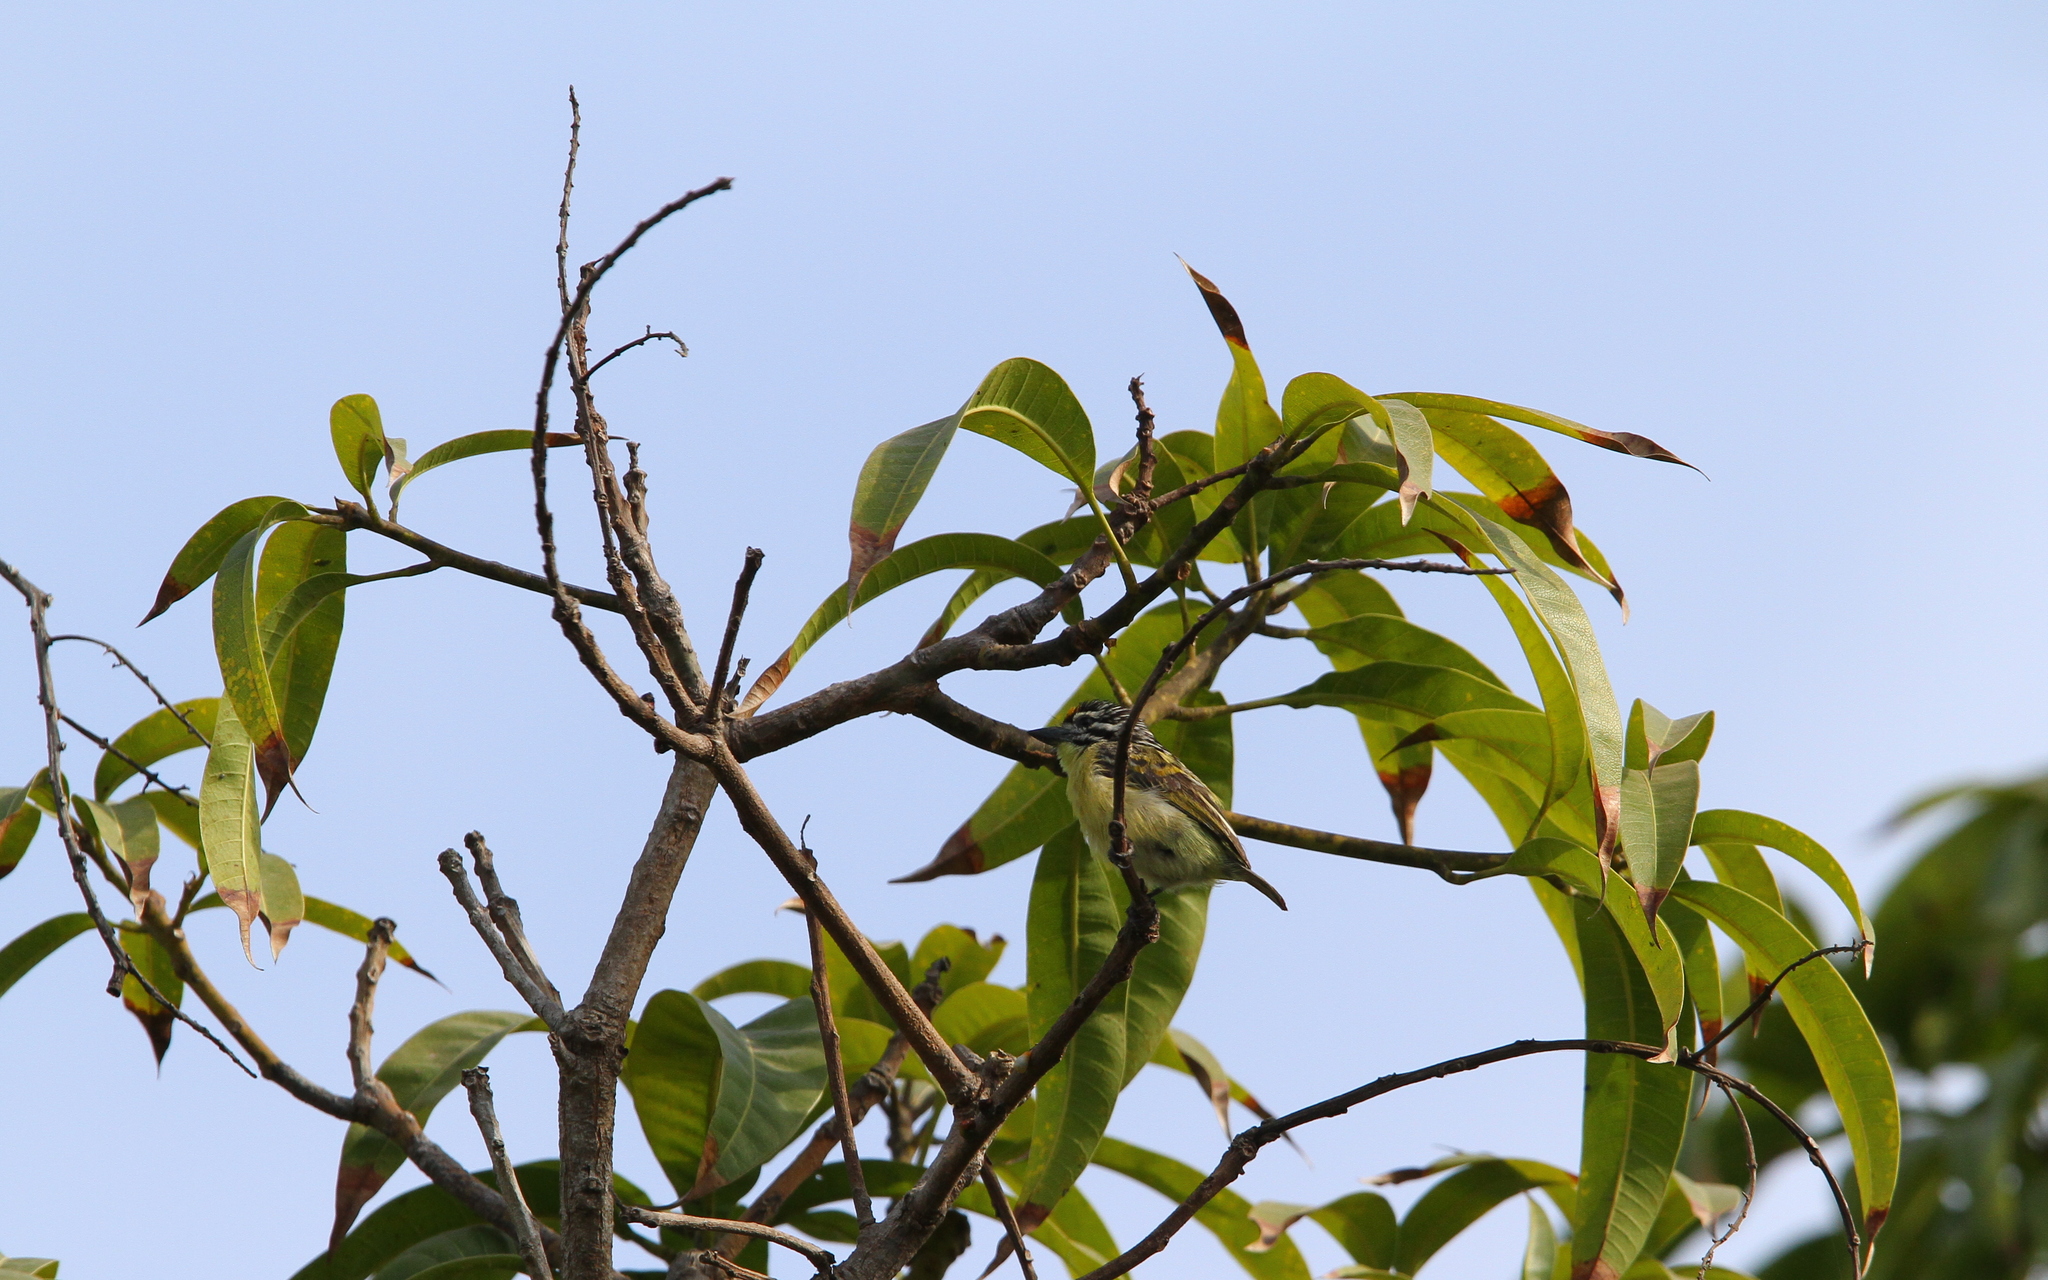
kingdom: Animalia
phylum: Chordata
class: Aves
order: Piciformes
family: Lybiidae
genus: Pogoniulus
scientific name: Pogoniulus chrysoconus
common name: Yellow-fronted tinkerbird
